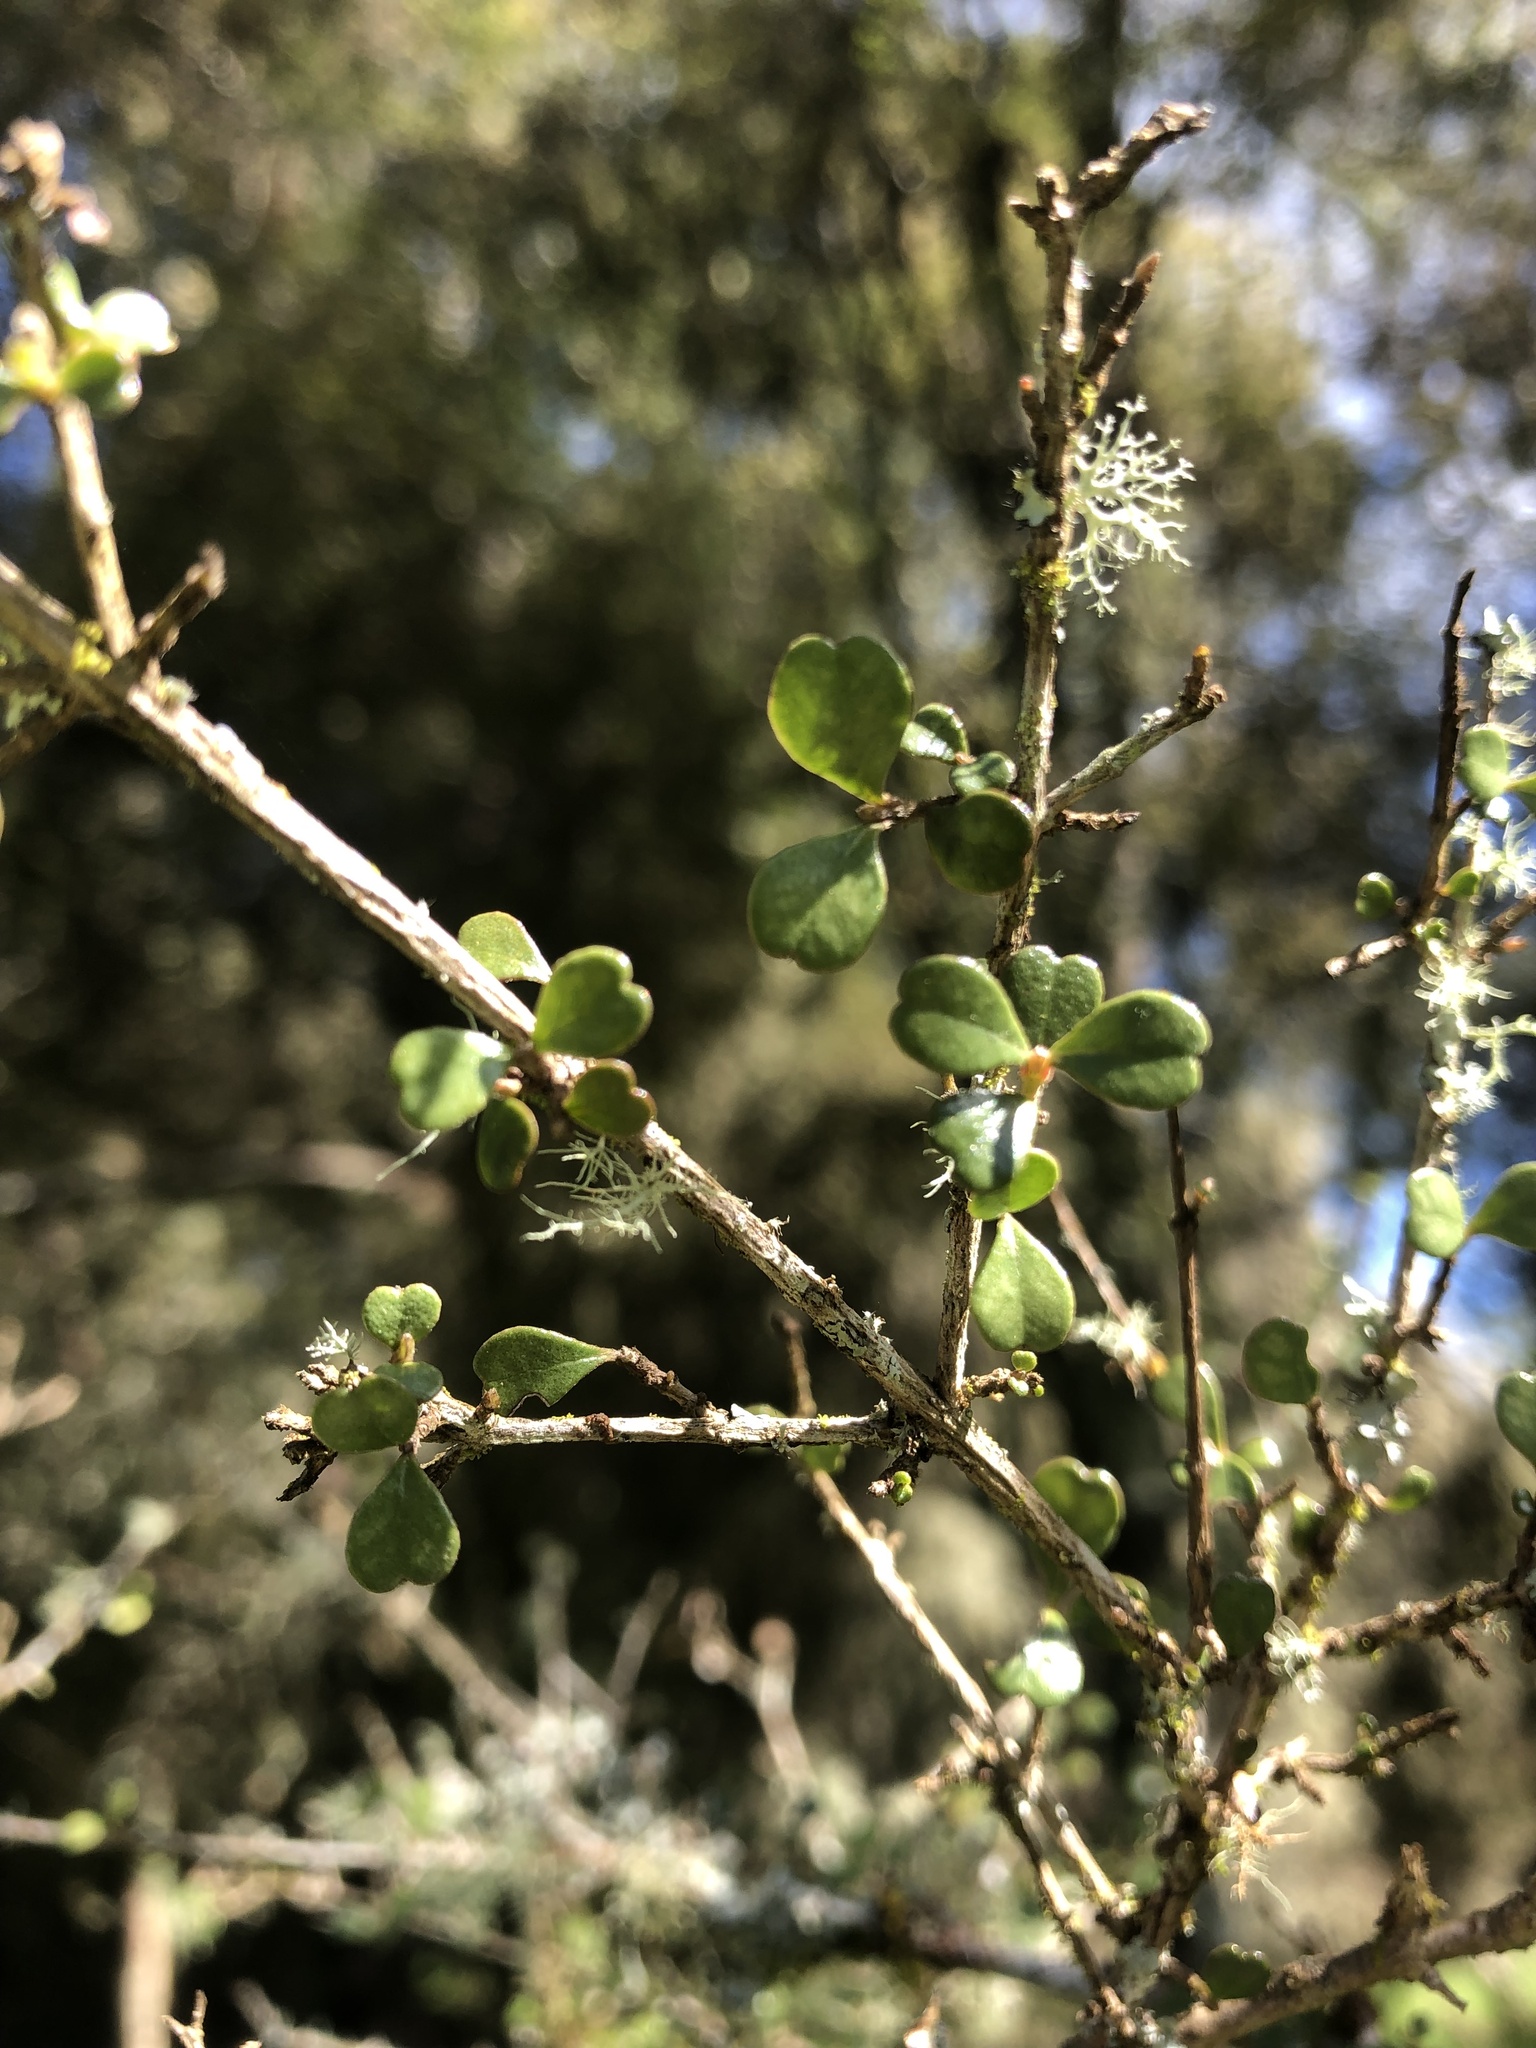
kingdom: Plantae
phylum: Tracheophyta
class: Magnoliopsida
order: Myrtales
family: Myrtaceae
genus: Lophomyrtus
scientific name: Lophomyrtus obcordata
